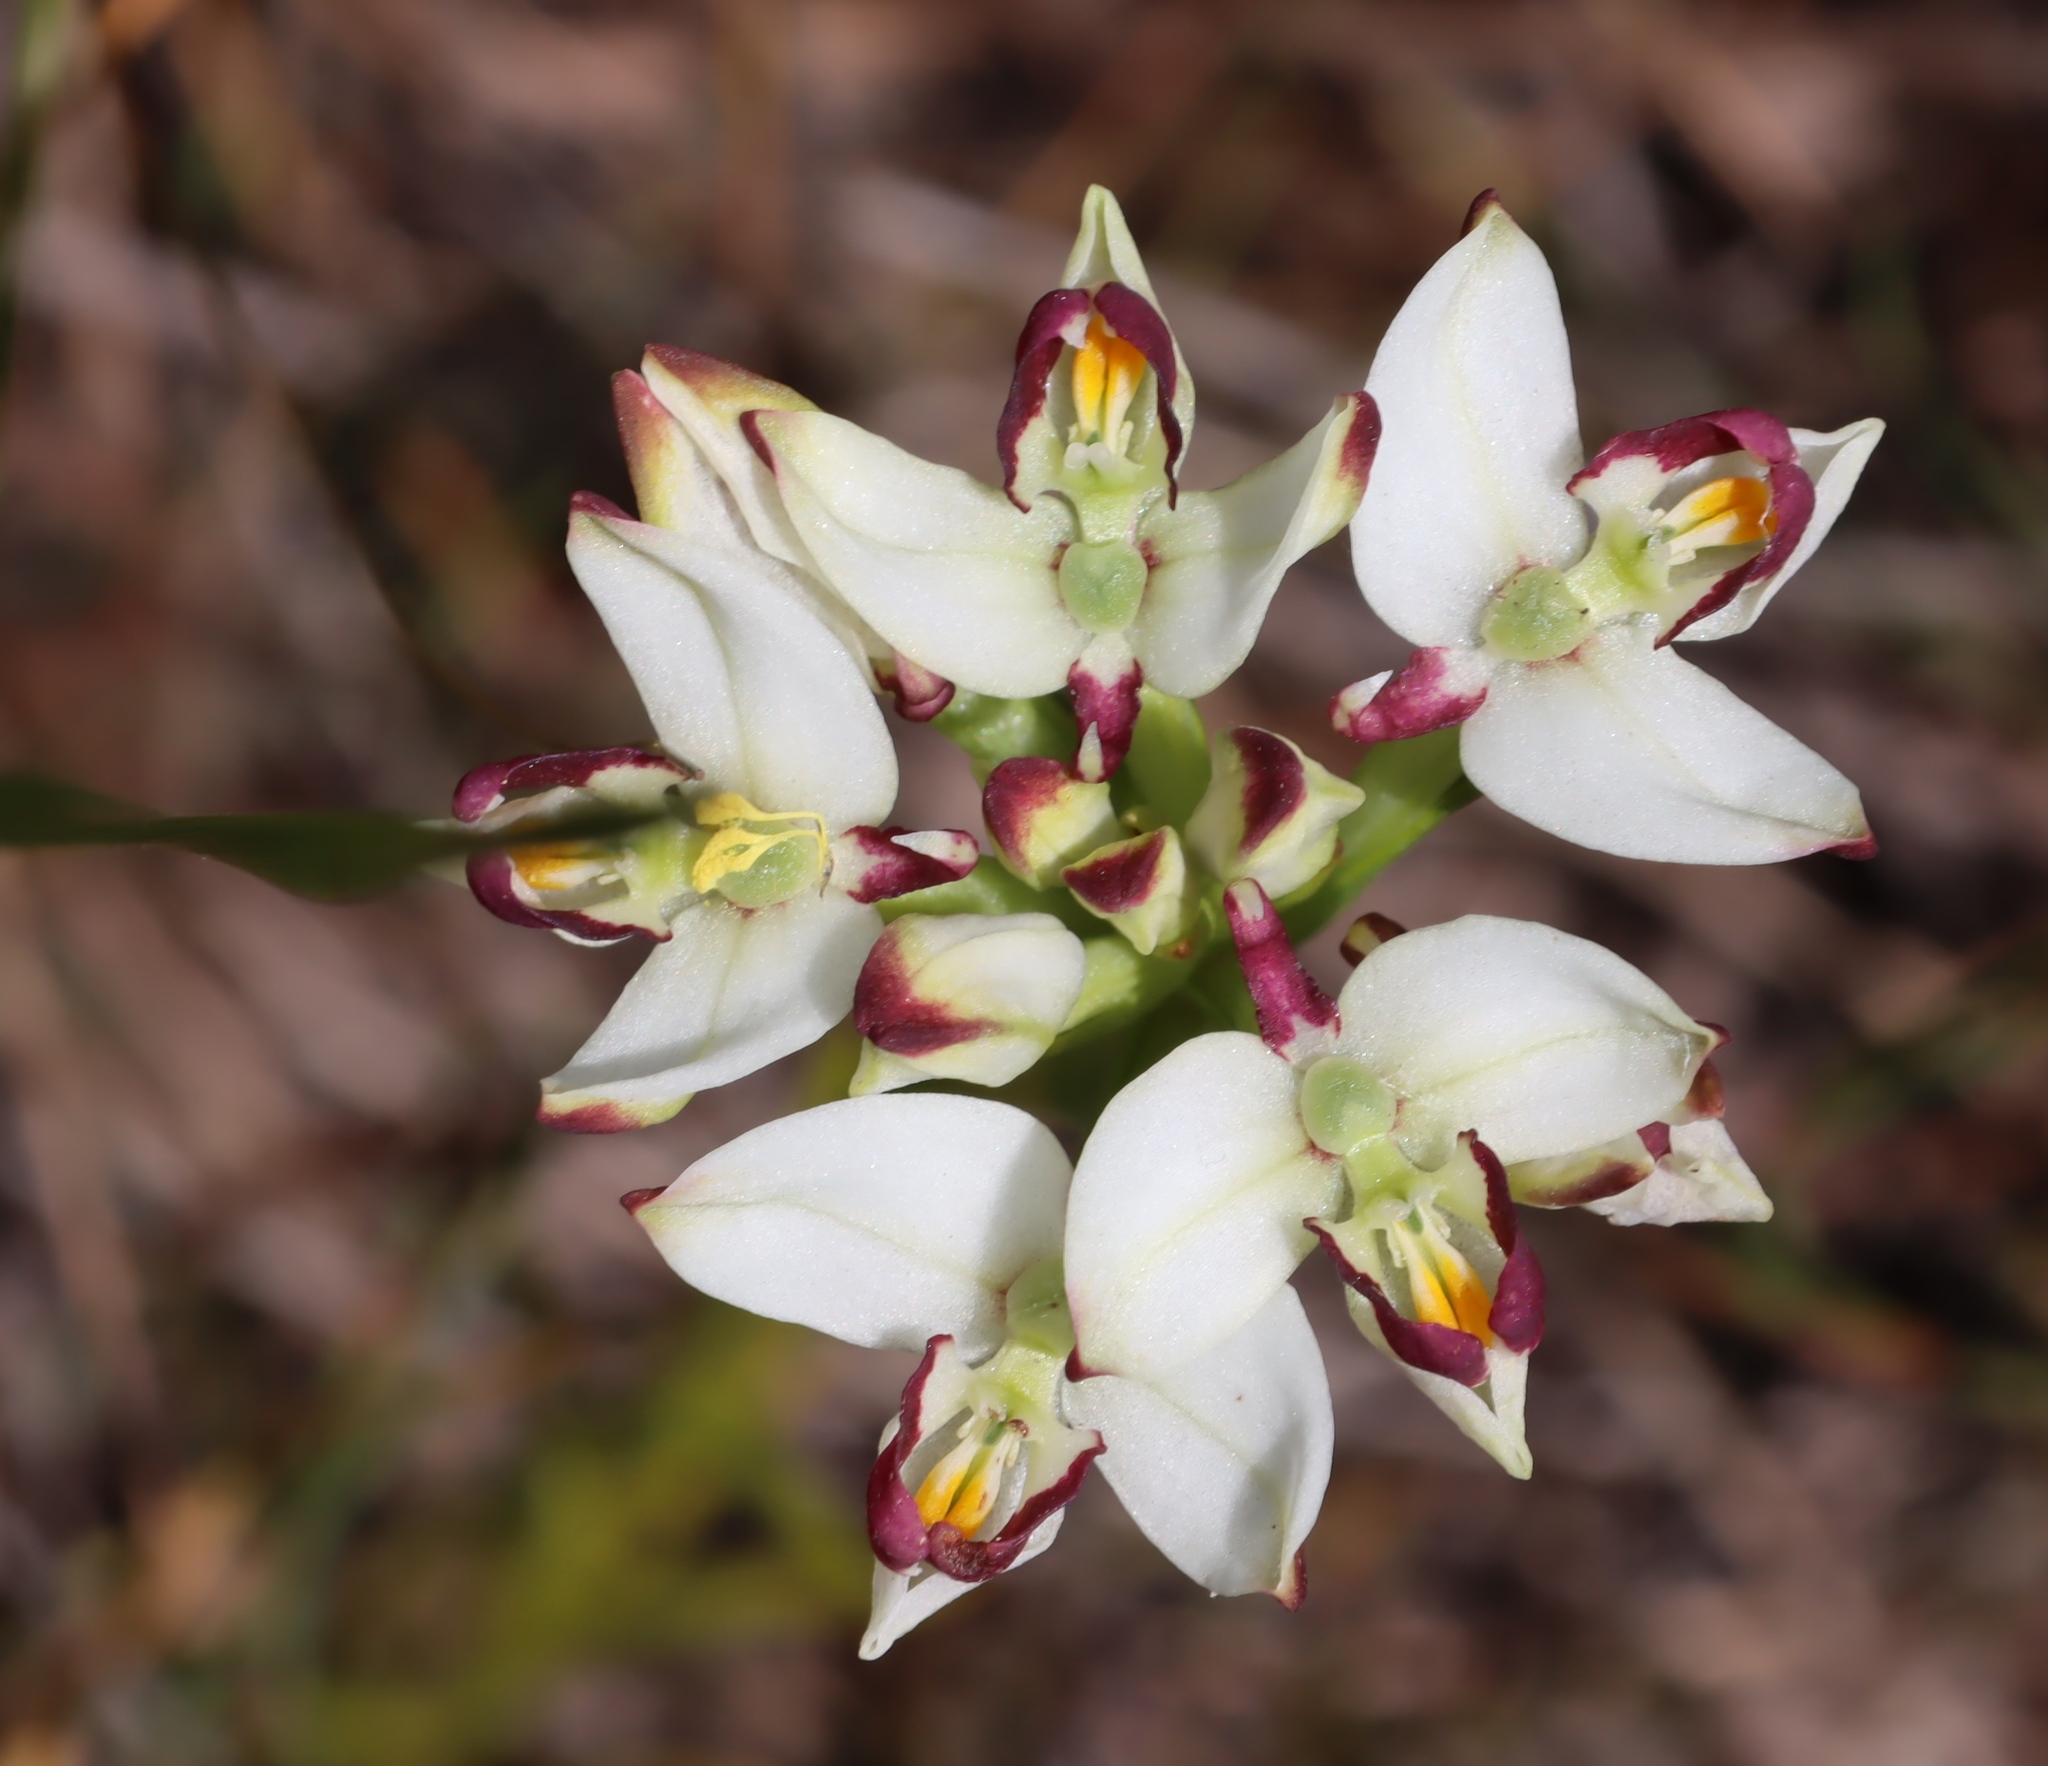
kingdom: Plantae
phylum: Tracheophyta
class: Liliopsida
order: Asparagales
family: Orchidaceae
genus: Disa
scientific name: Disa bivalvata
